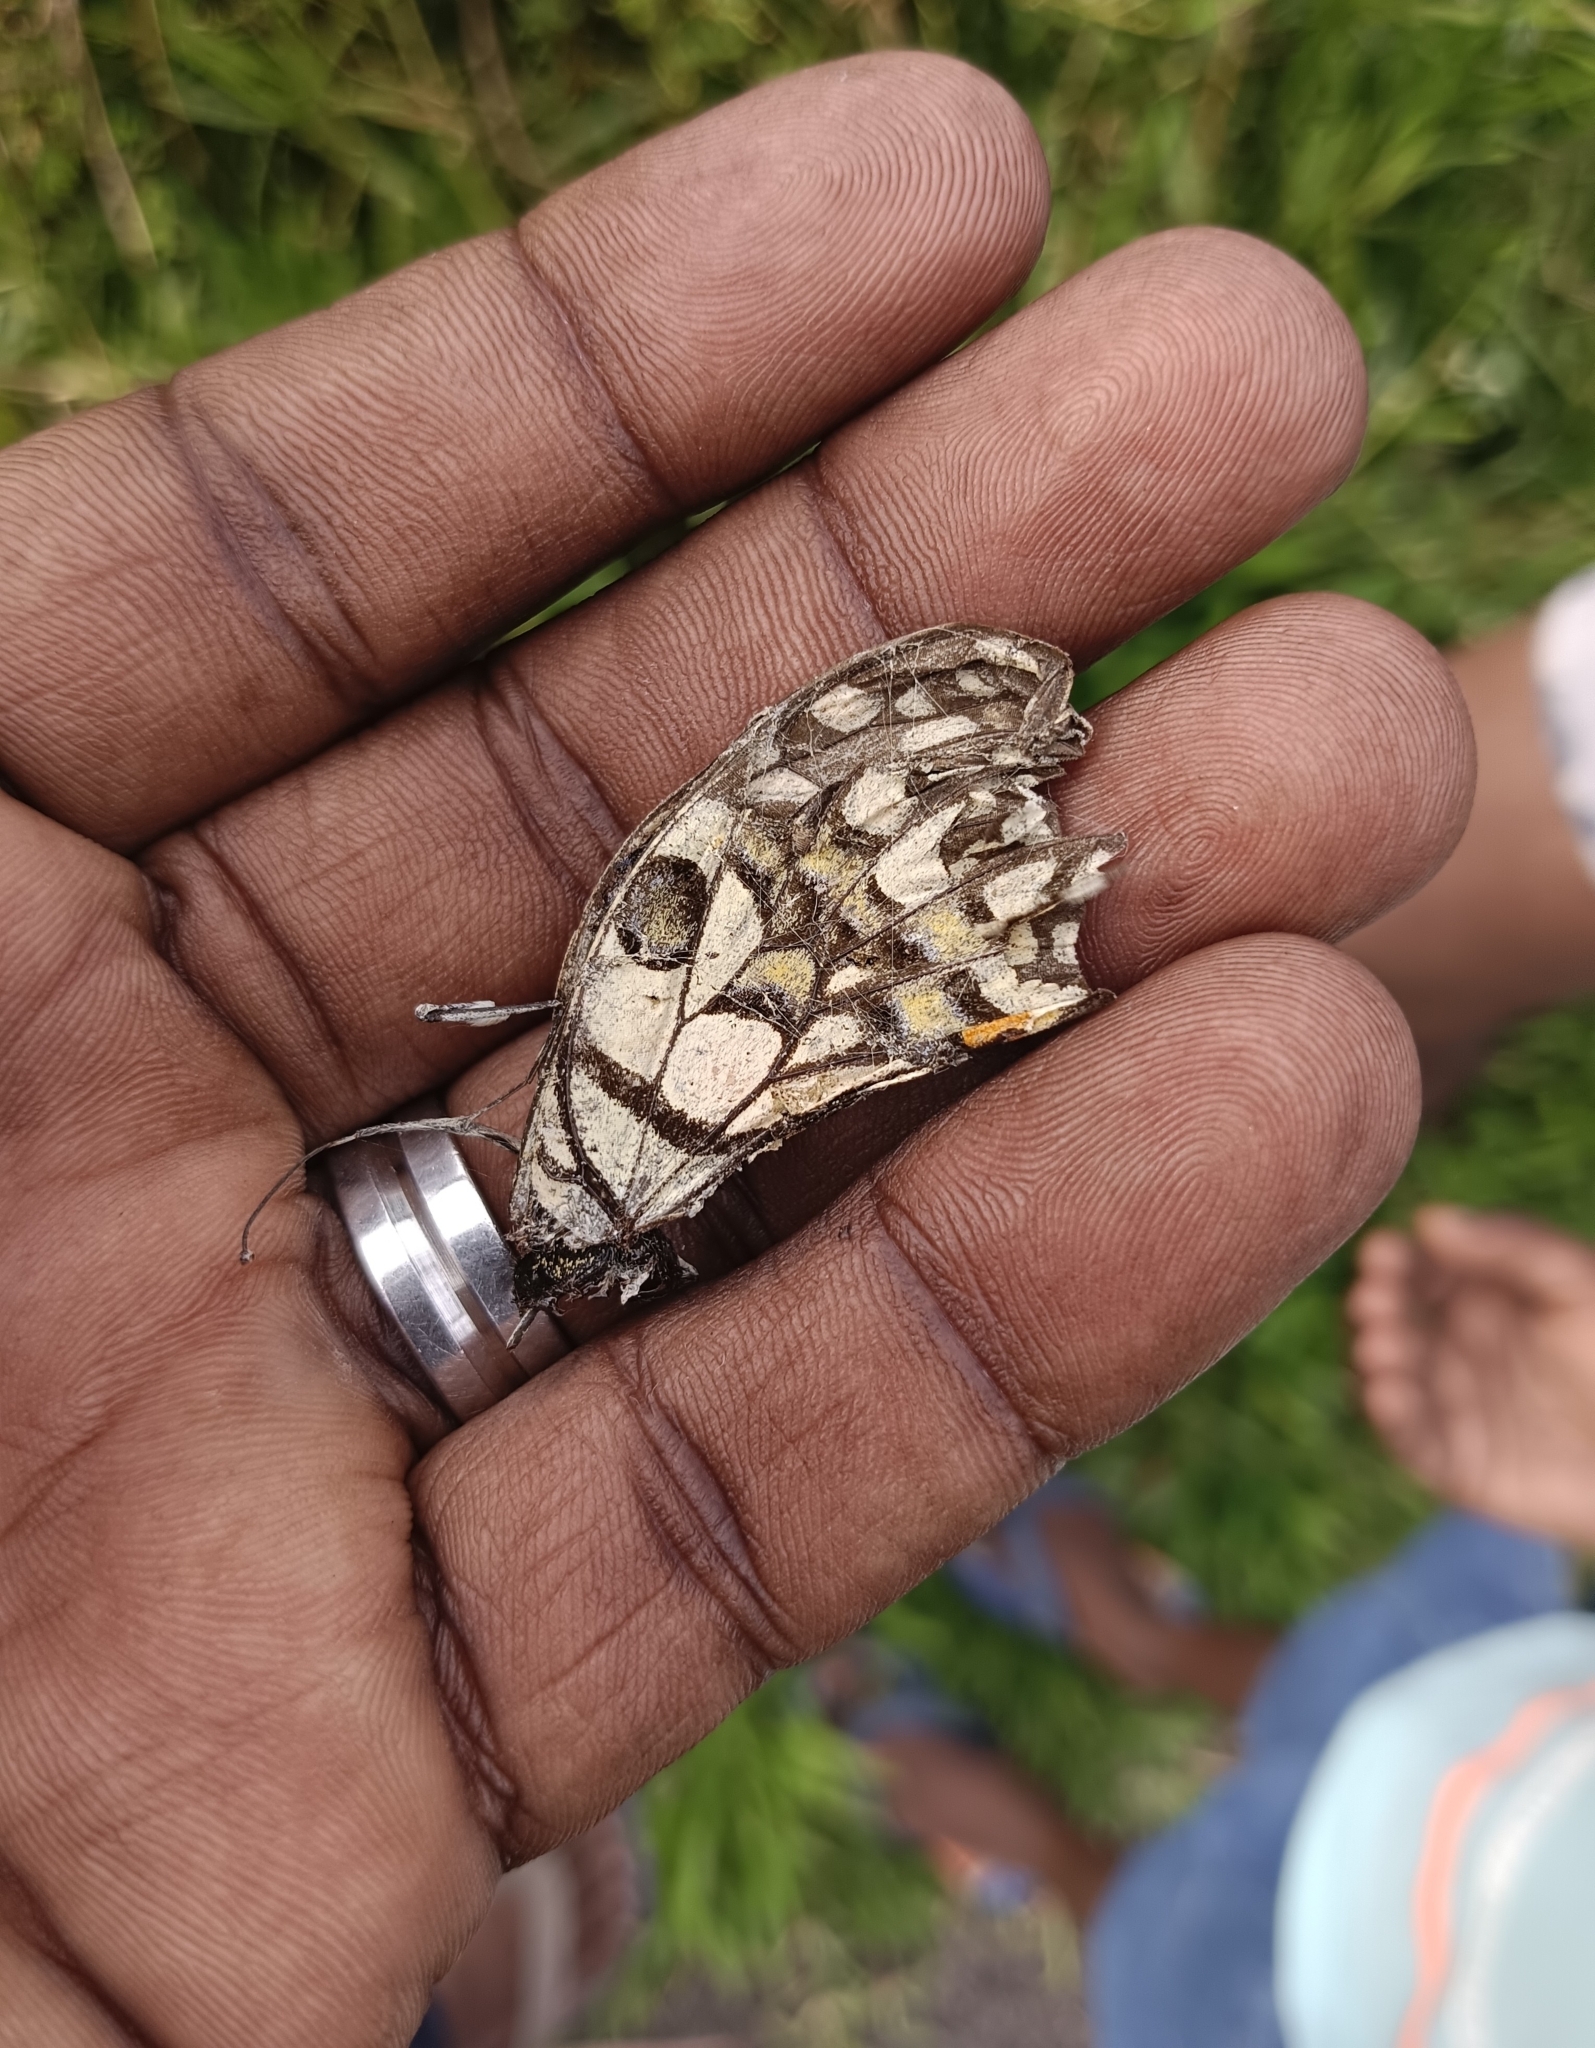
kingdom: Animalia
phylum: Arthropoda
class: Insecta
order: Lepidoptera
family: Papilionidae
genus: Papilio
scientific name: Papilio demoleus
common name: Lime butterfly
